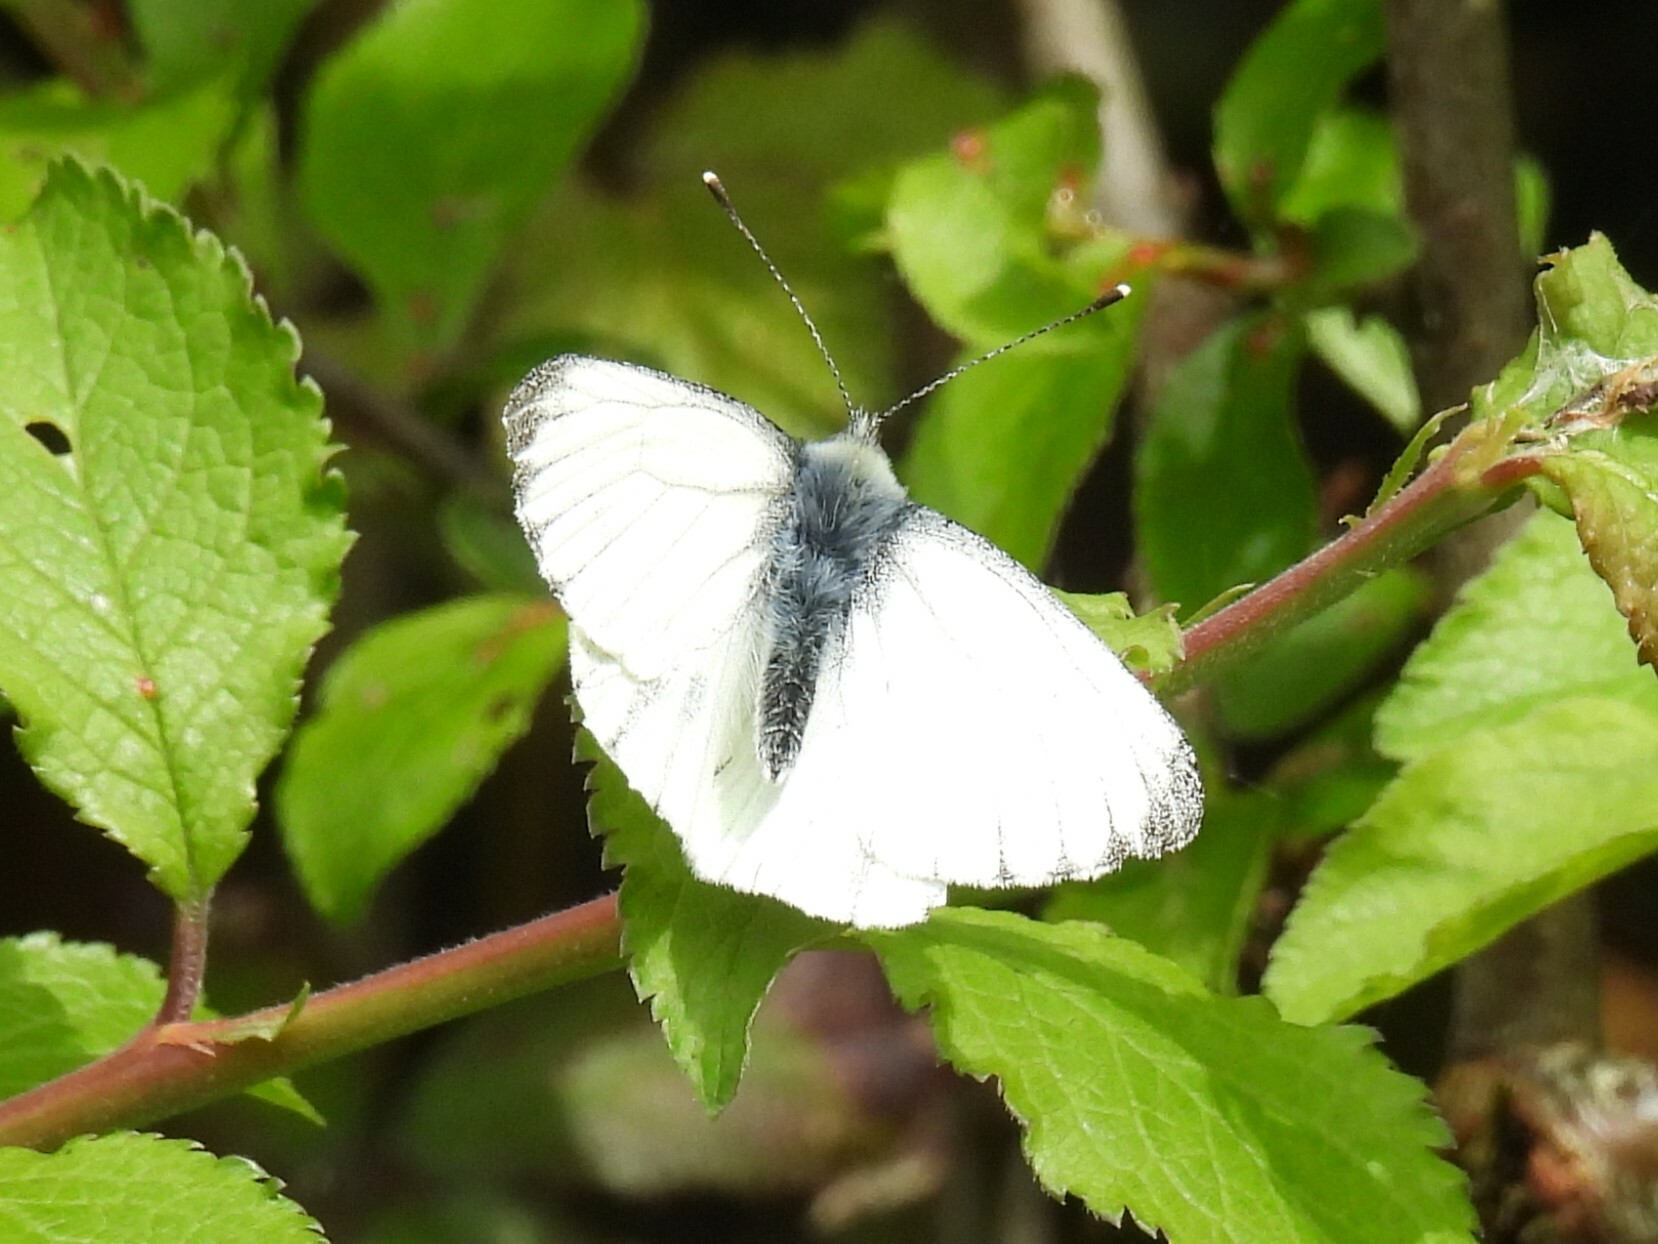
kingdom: Animalia
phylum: Arthropoda
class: Insecta
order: Lepidoptera
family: Pieridae
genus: Pieris
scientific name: Pieris napi
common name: Green-veined white
